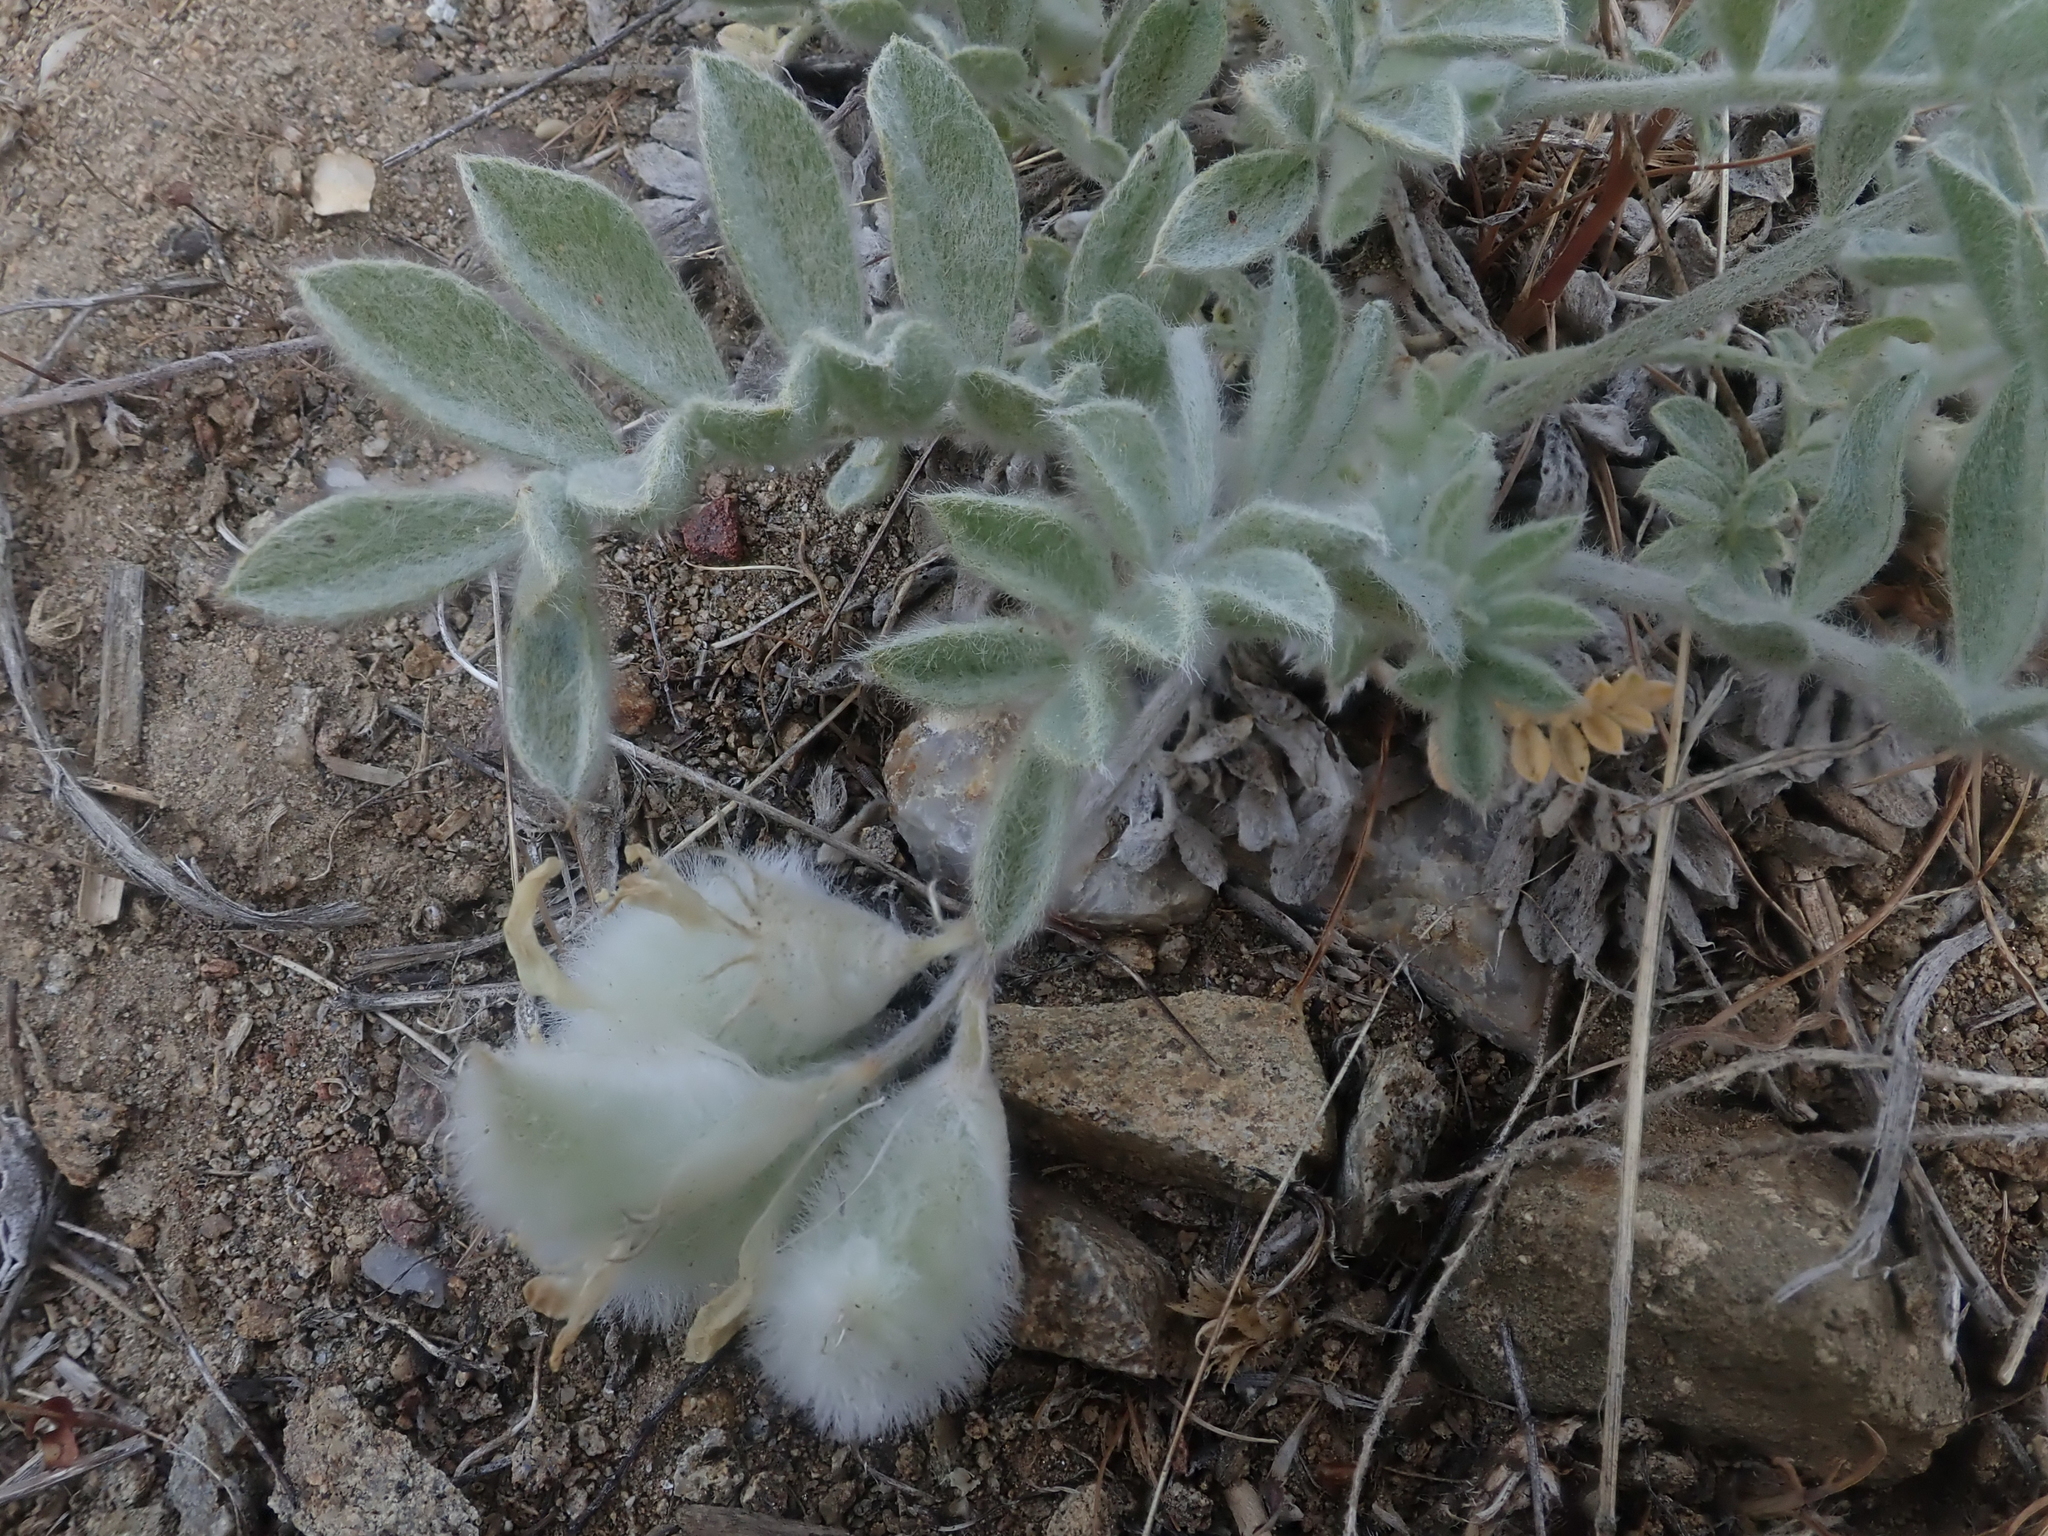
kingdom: Plantae
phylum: Tracheophyta
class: Magnoliopsida
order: Fabales
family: Fabaceae
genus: Astragalus
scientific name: Astragalus purshii
